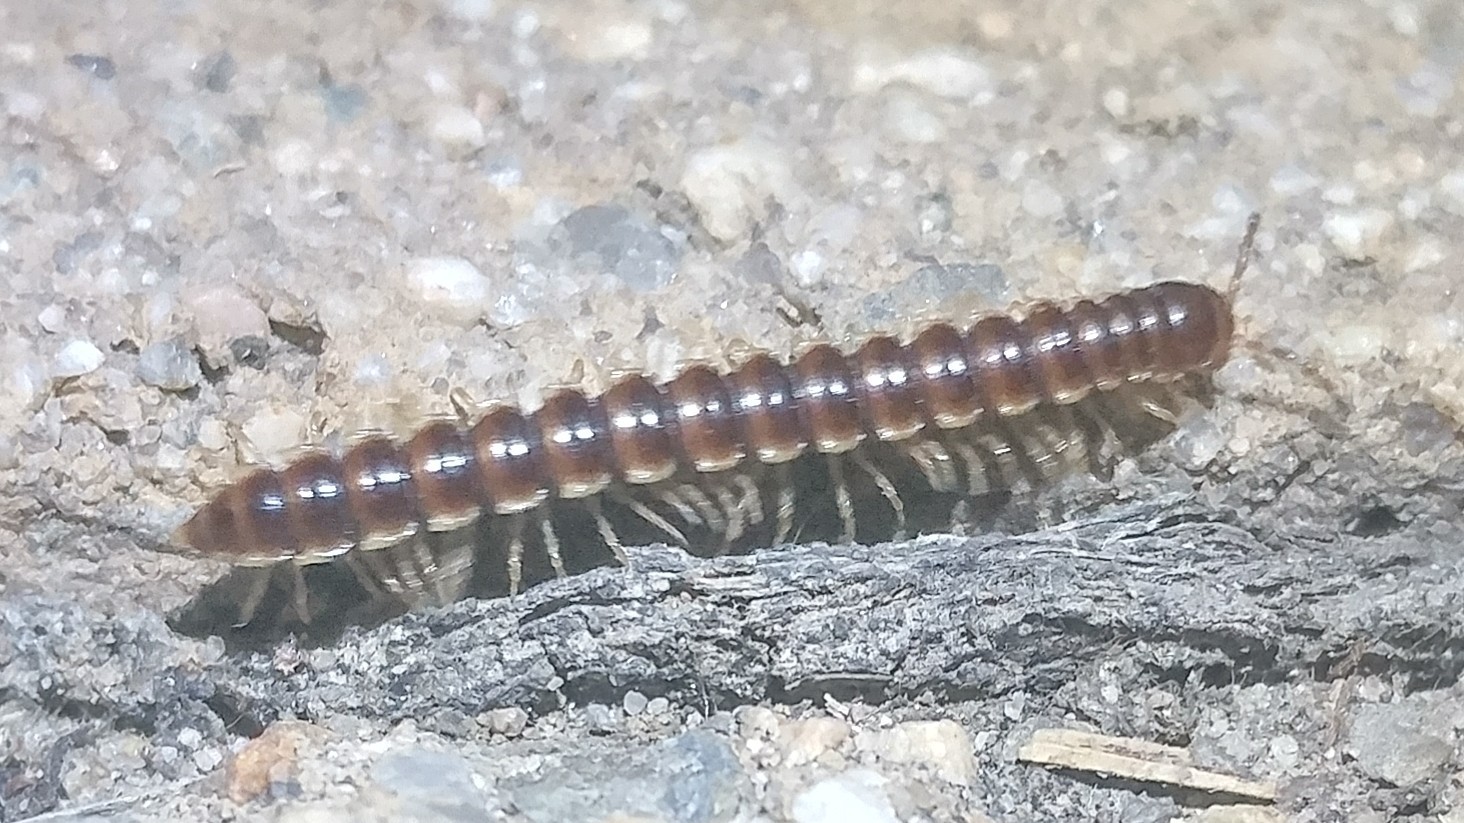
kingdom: Animalia
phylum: Arthropoda
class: Diplopoda
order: Polydesmida
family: Paradoxosomatidae
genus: Oxidus
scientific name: Oxidus gracilis
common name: Greenhouse millipede
